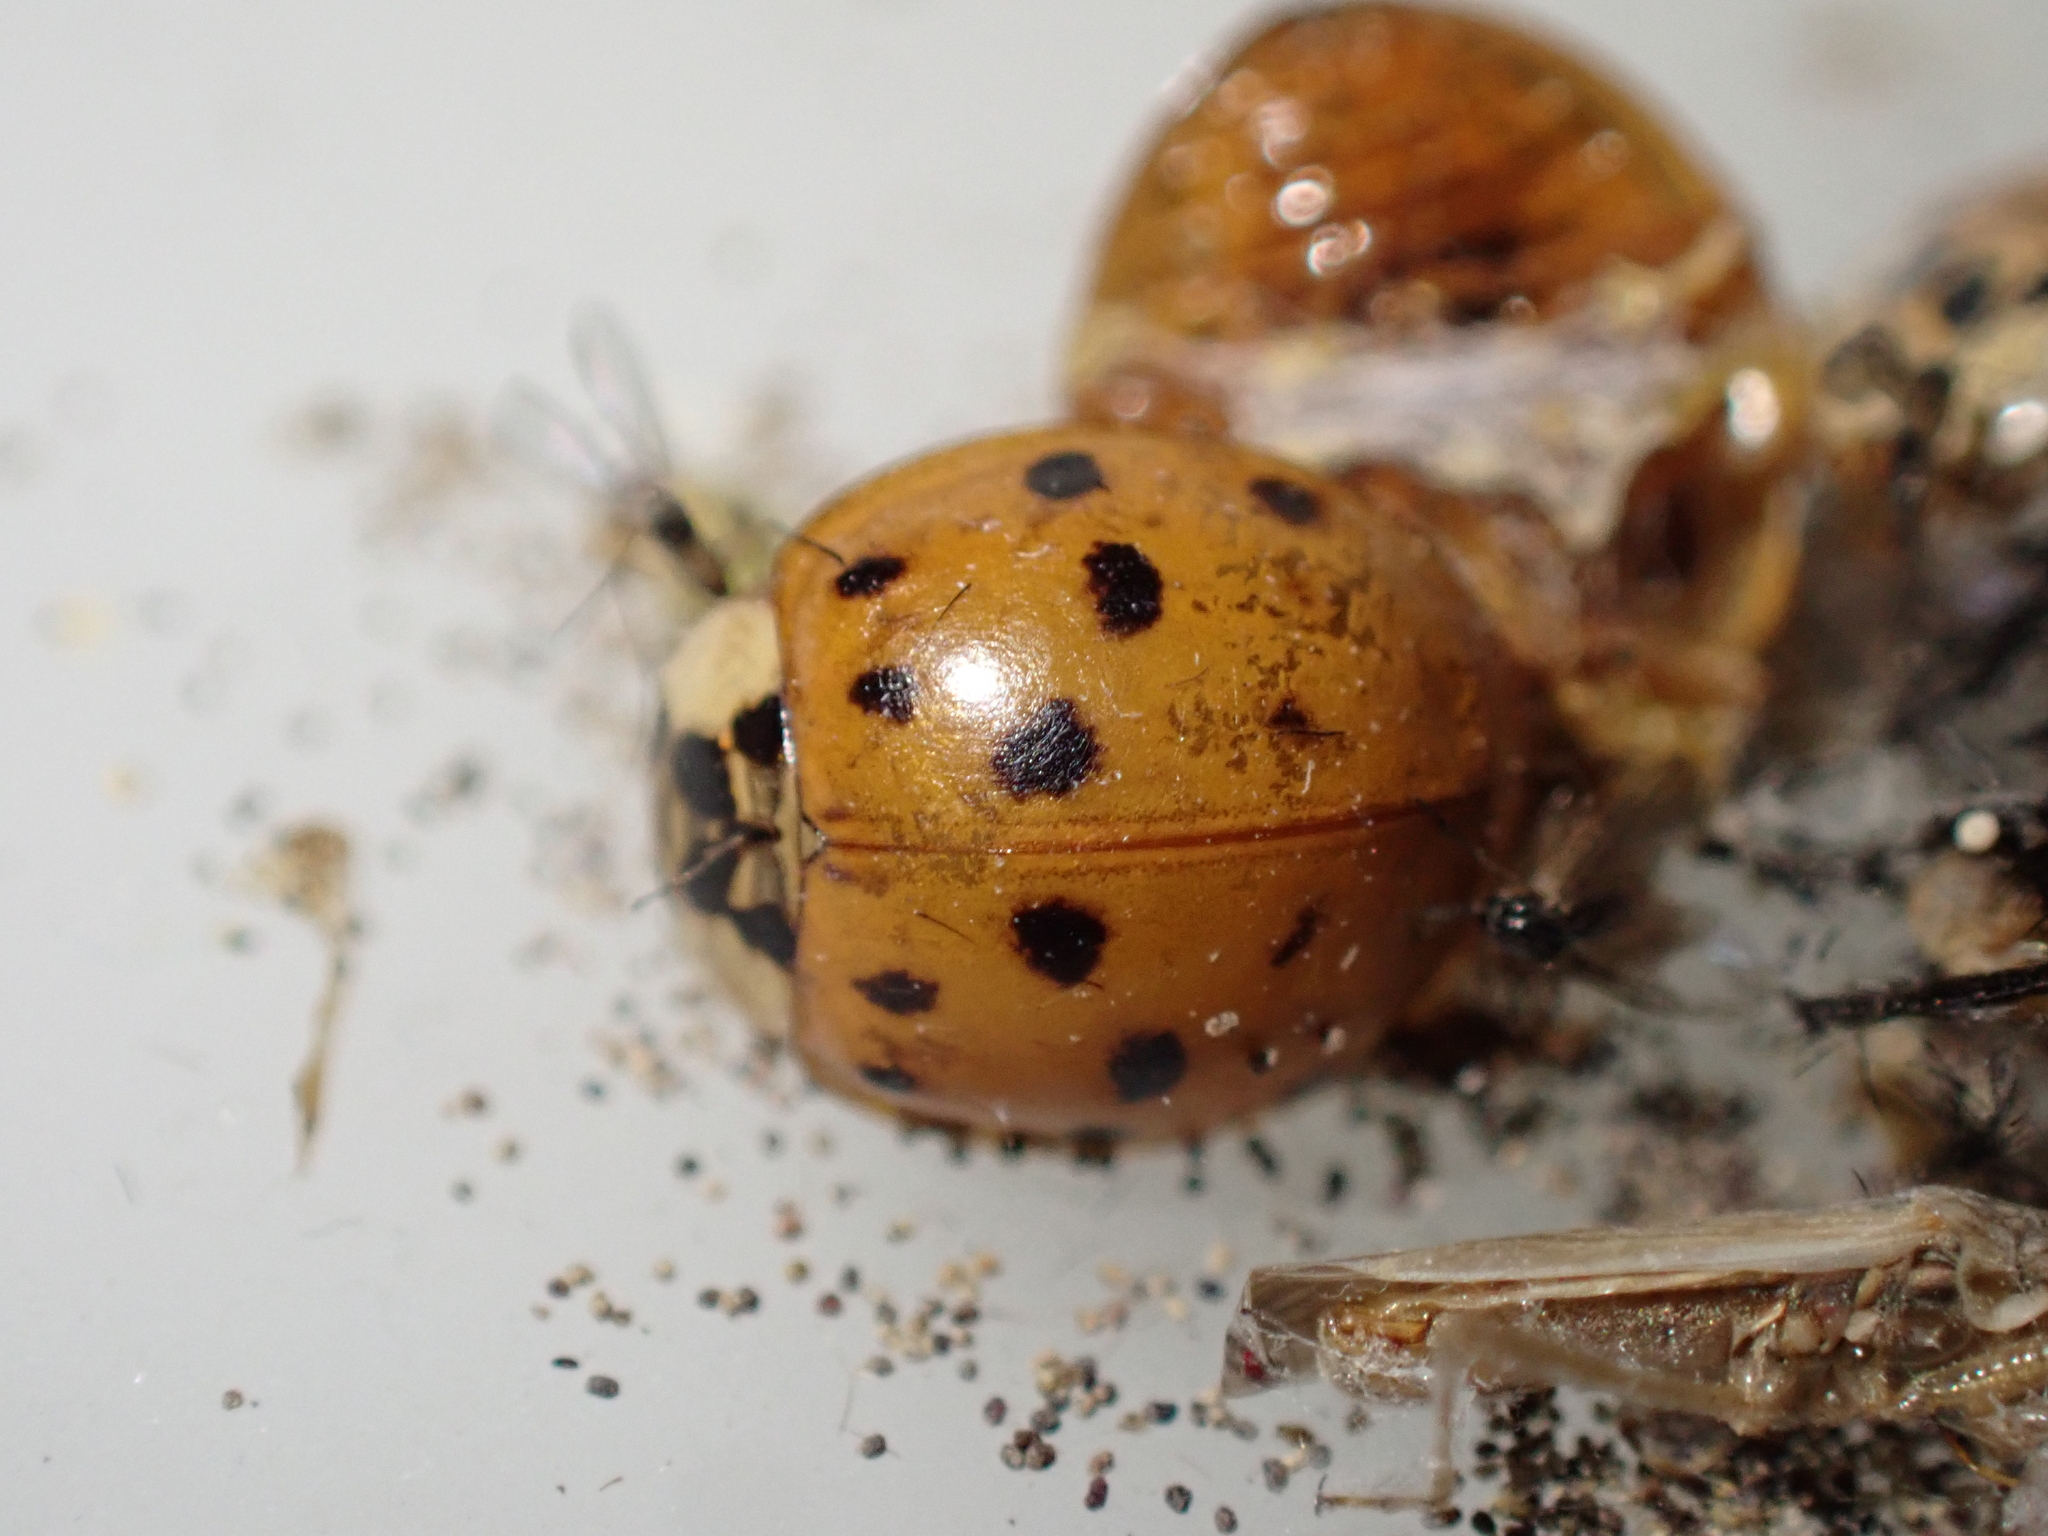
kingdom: Animalia
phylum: Arthropoda
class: Insecta
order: Coleoptera
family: Coccinellidae
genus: Harmonia
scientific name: Harmonia axyridis
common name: Harlequin ladybird
